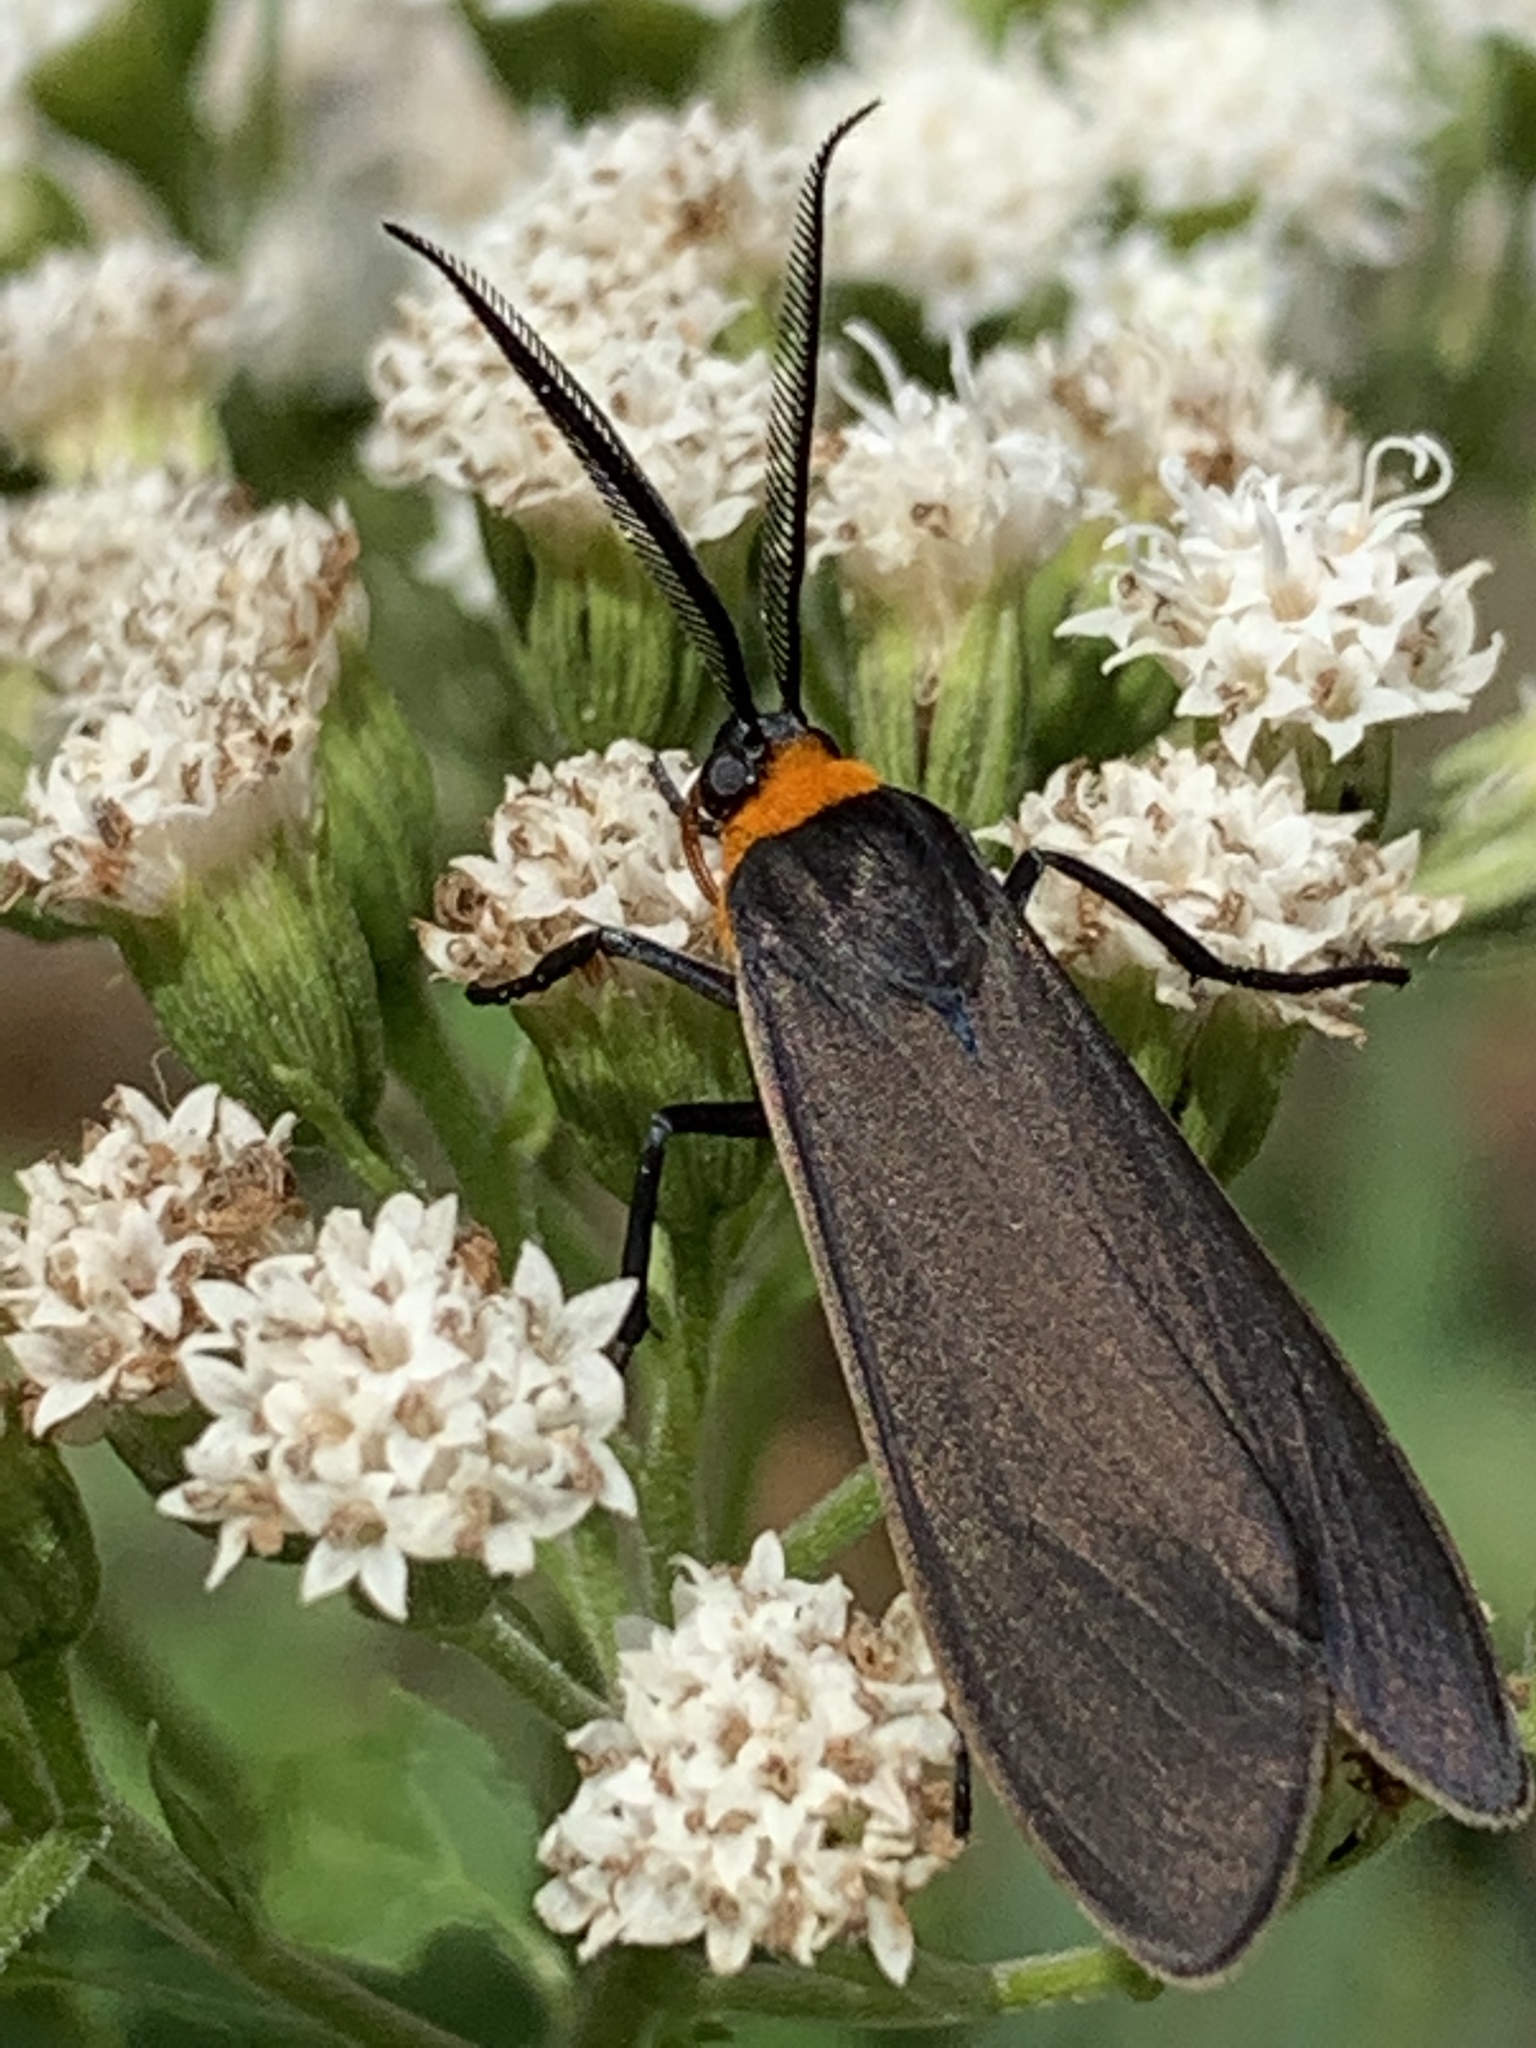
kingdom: Animalia
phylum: Arthropoda
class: Insecta
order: Lepidoptera
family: Erebidae
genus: Cisseps
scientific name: Cisseps fulvicollis
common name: Yellow-collared scape moth
